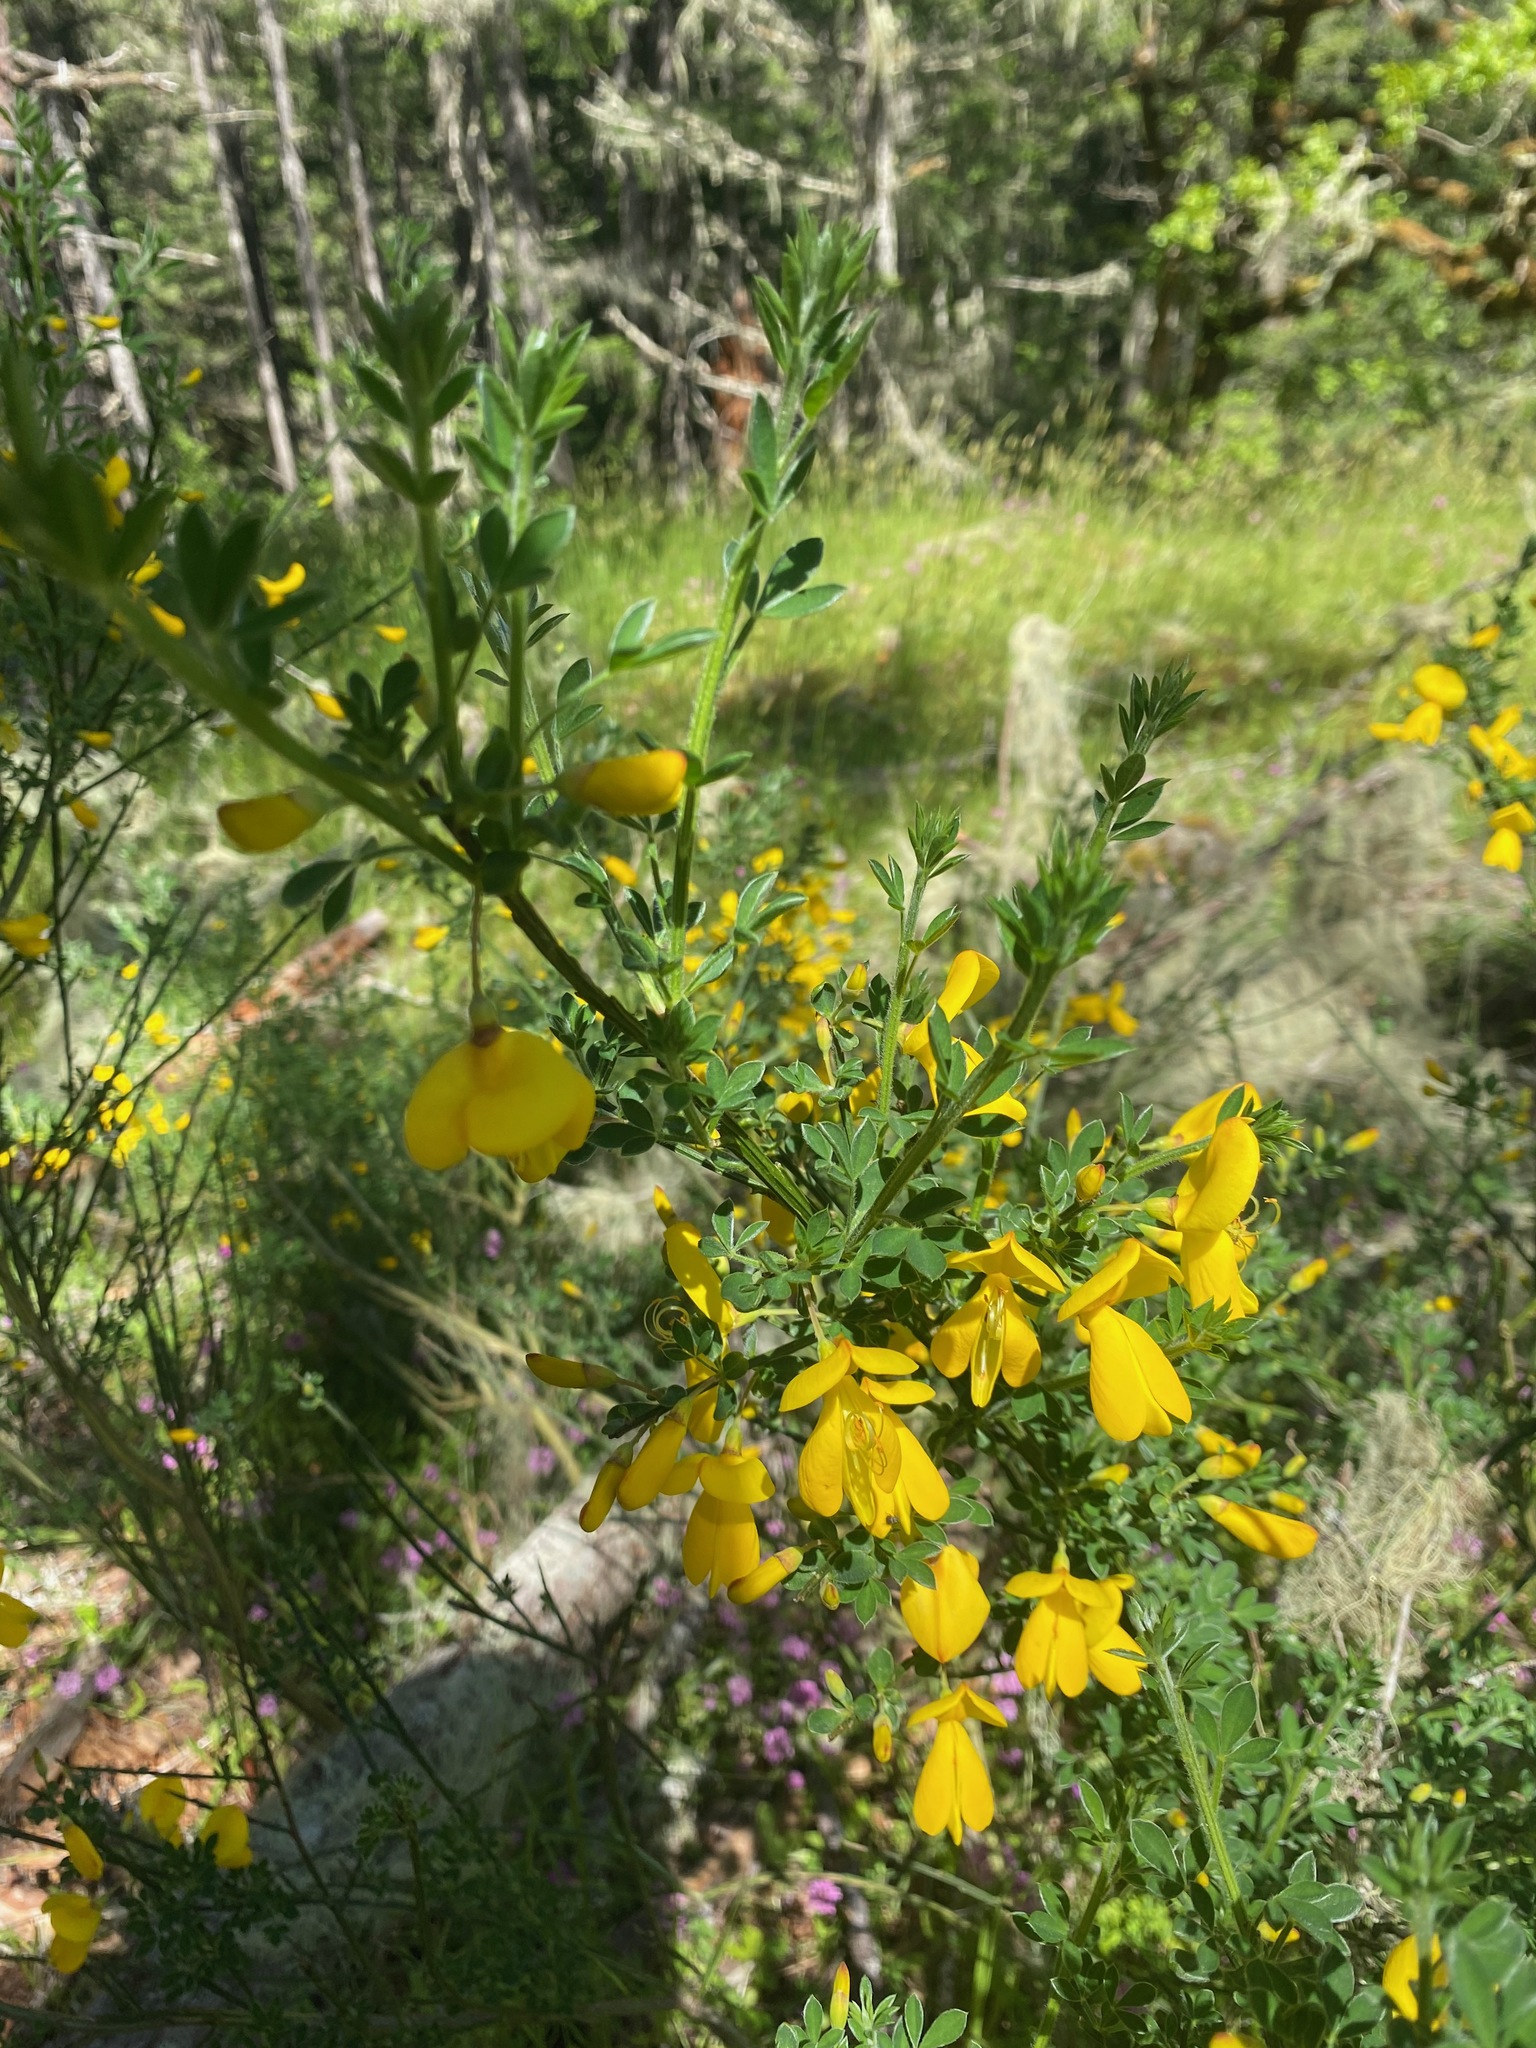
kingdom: Plantae
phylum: Tracheophyta
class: Magnoliopsida
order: Fabales
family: Fabaceae
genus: Cytisus
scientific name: Cytisus scoparius
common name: Scotch broom
